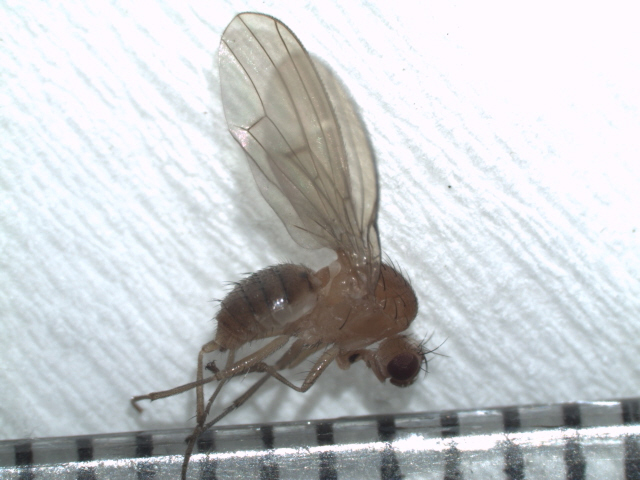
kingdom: Animalia
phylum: Arthropoda
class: Insecta
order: Diptera
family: Heleomyzidae
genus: Allophyla
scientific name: Allophyla laevis
